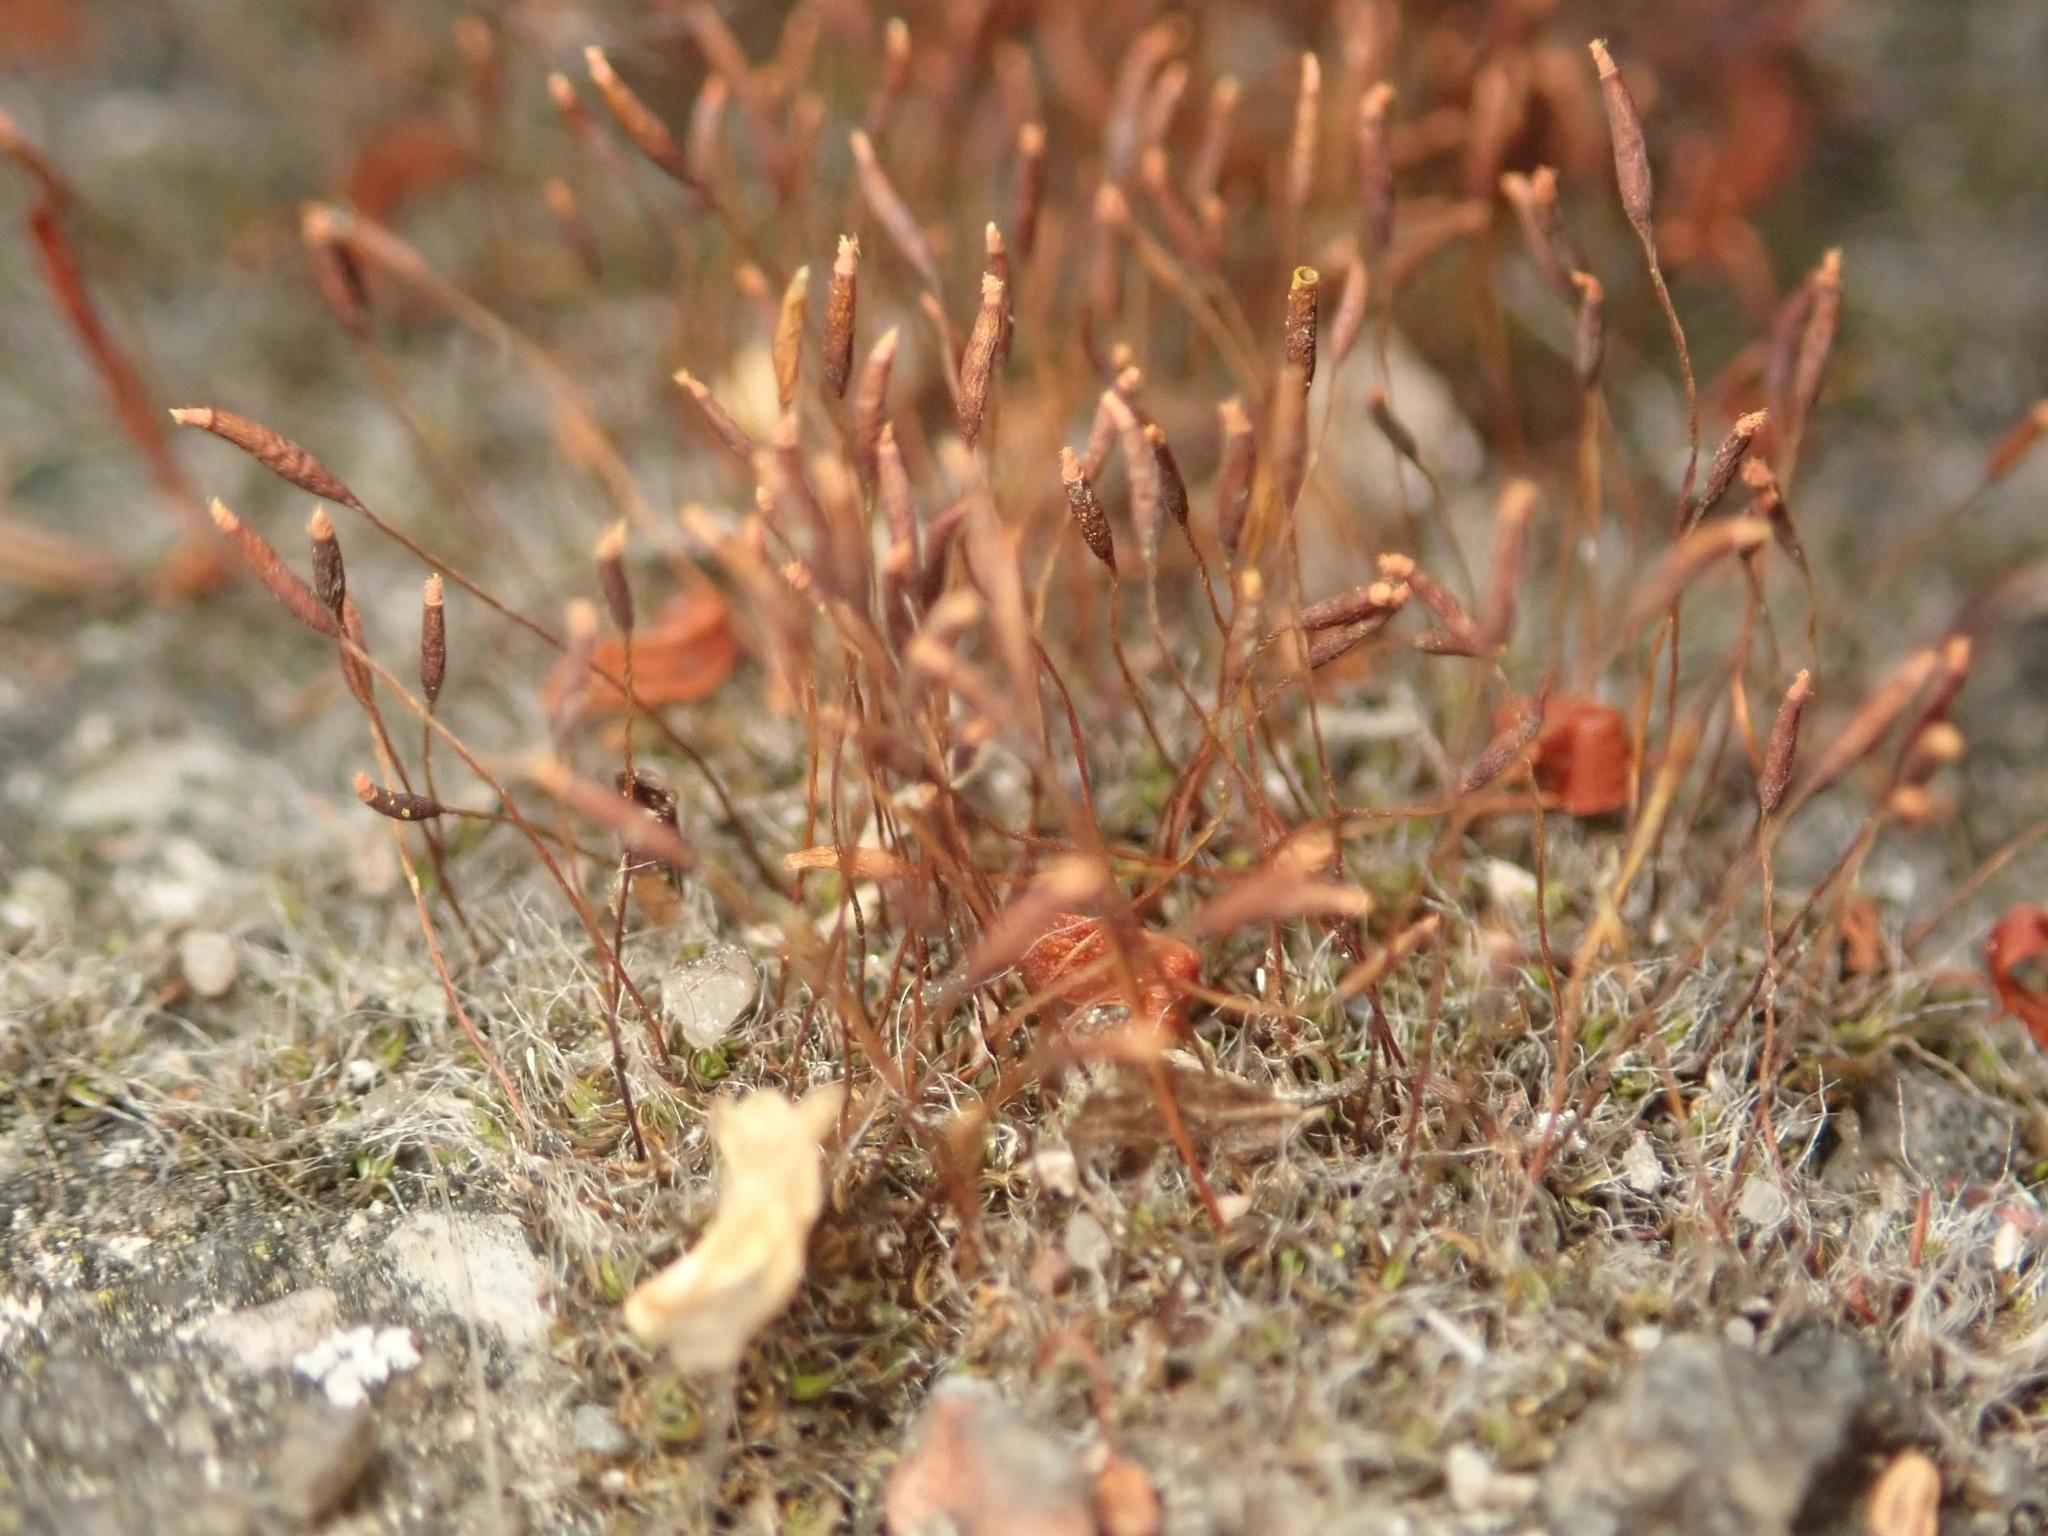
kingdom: Plantae
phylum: Bryophyta
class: Bryopsida
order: Pottiales
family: Pottiaceae
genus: Tortula
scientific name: Tortula muralis
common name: Wall screw-moss
